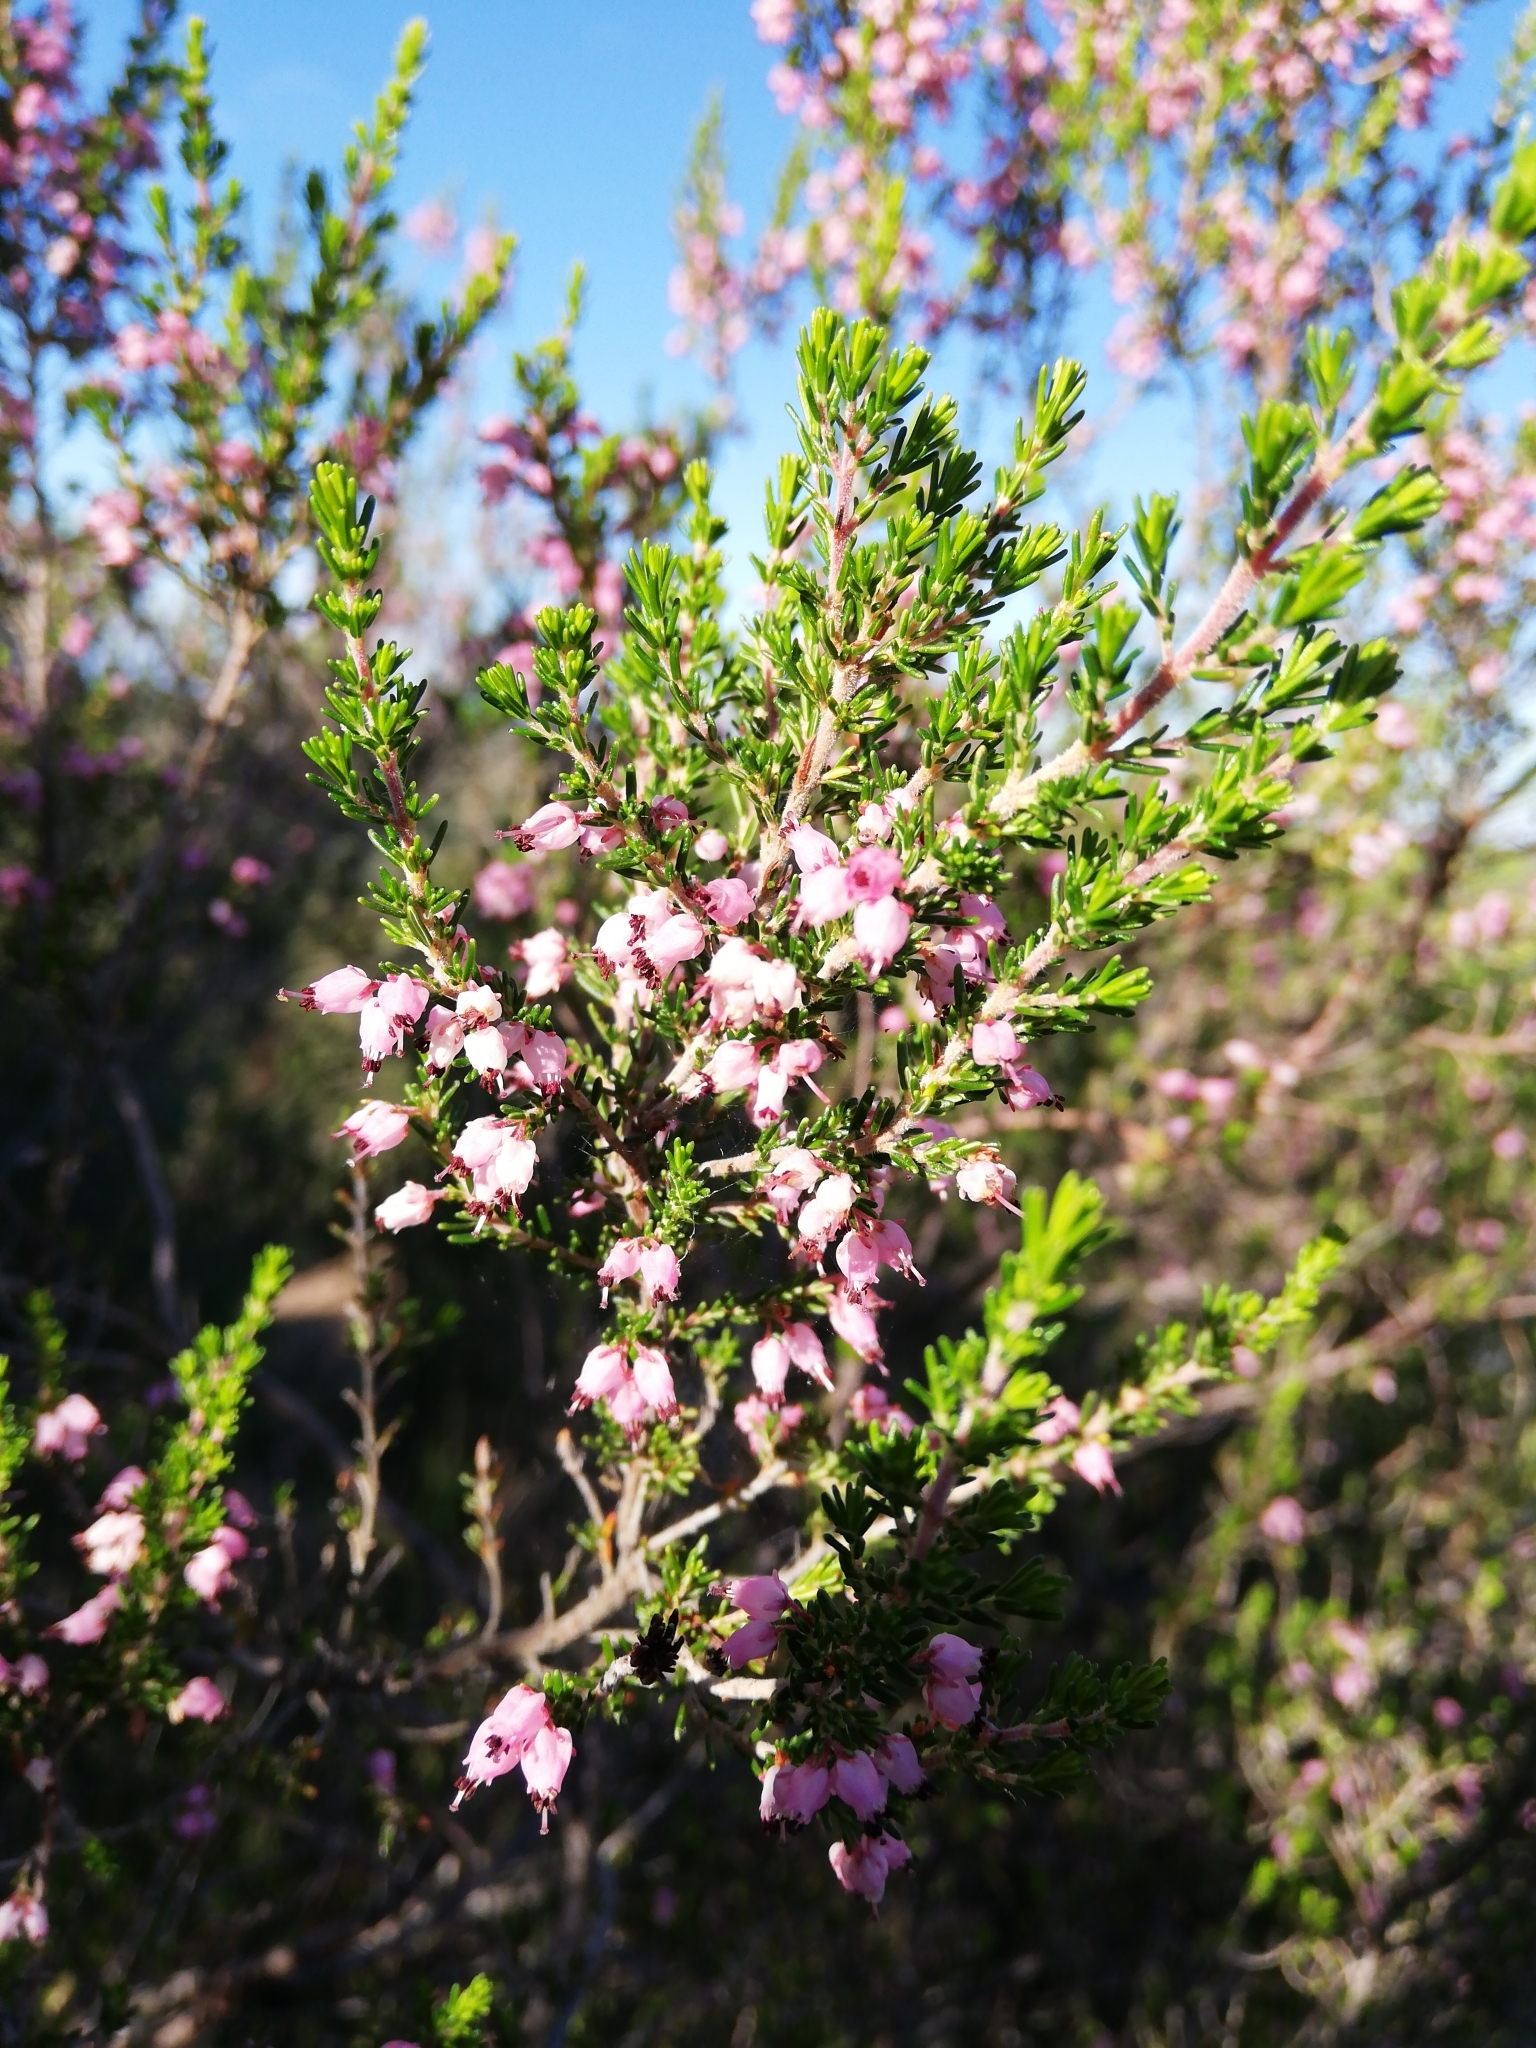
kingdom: Plantae
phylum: Tracheophyta
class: Magnoliopsida
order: Ericales
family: Ericaceae
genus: Erica
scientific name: Erica trivialis
